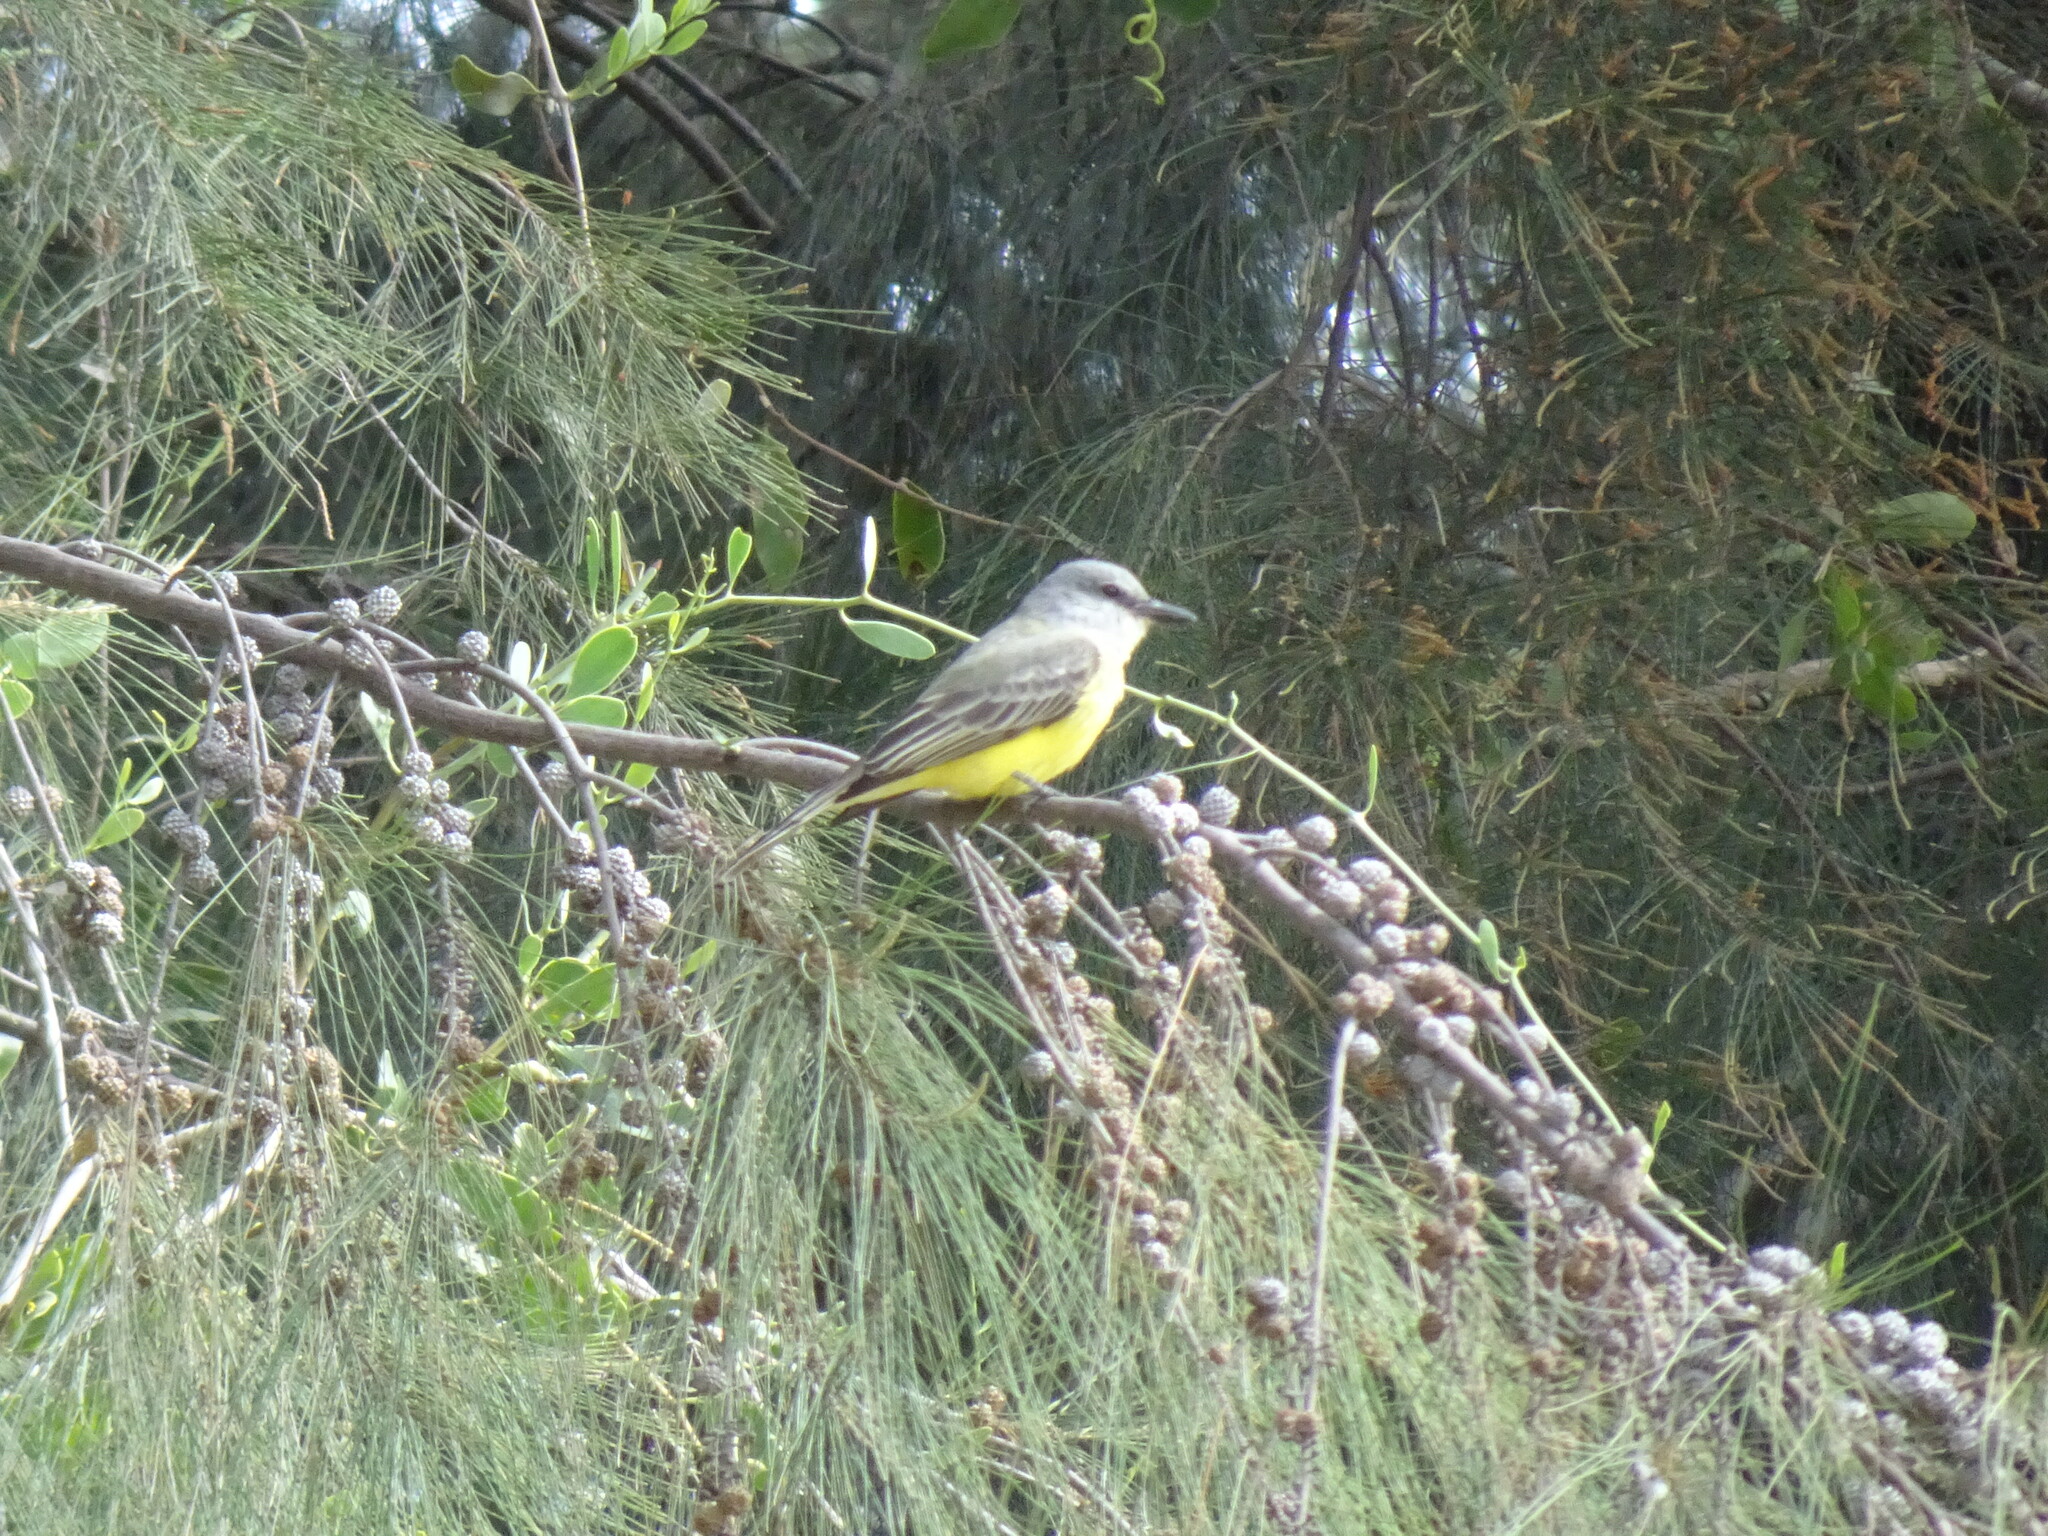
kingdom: Animalia
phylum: Chordata
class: Aves
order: Passeriformes
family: Tyrannidae
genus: Tyrannus
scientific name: Tyrannus melancholicus
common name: Tropical kingbird
